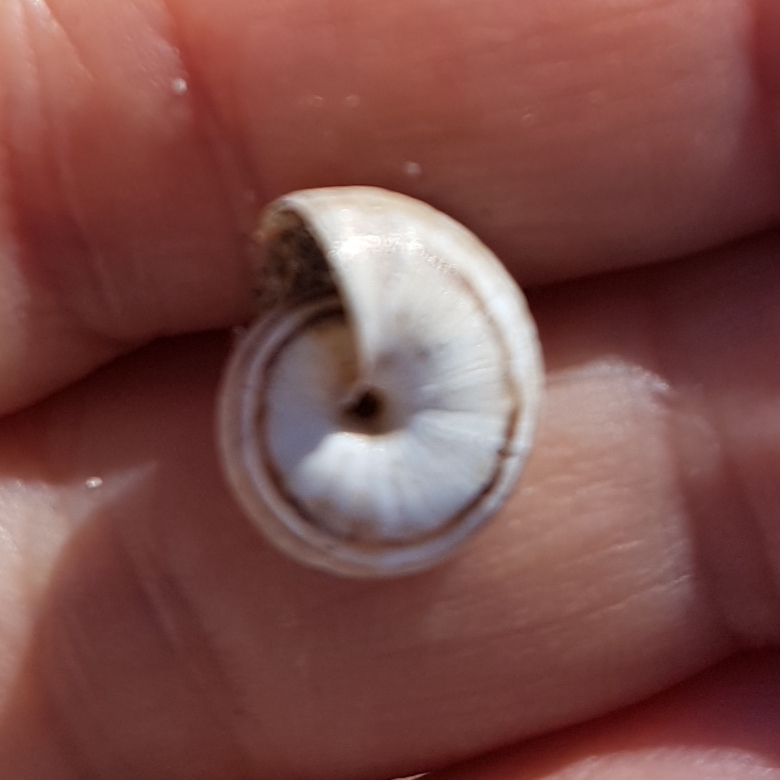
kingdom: Animalia
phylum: Mollusca
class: Gastropoda
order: Stylommatophora
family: Helicidae
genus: Theba
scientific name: Theba pisana
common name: White snail
